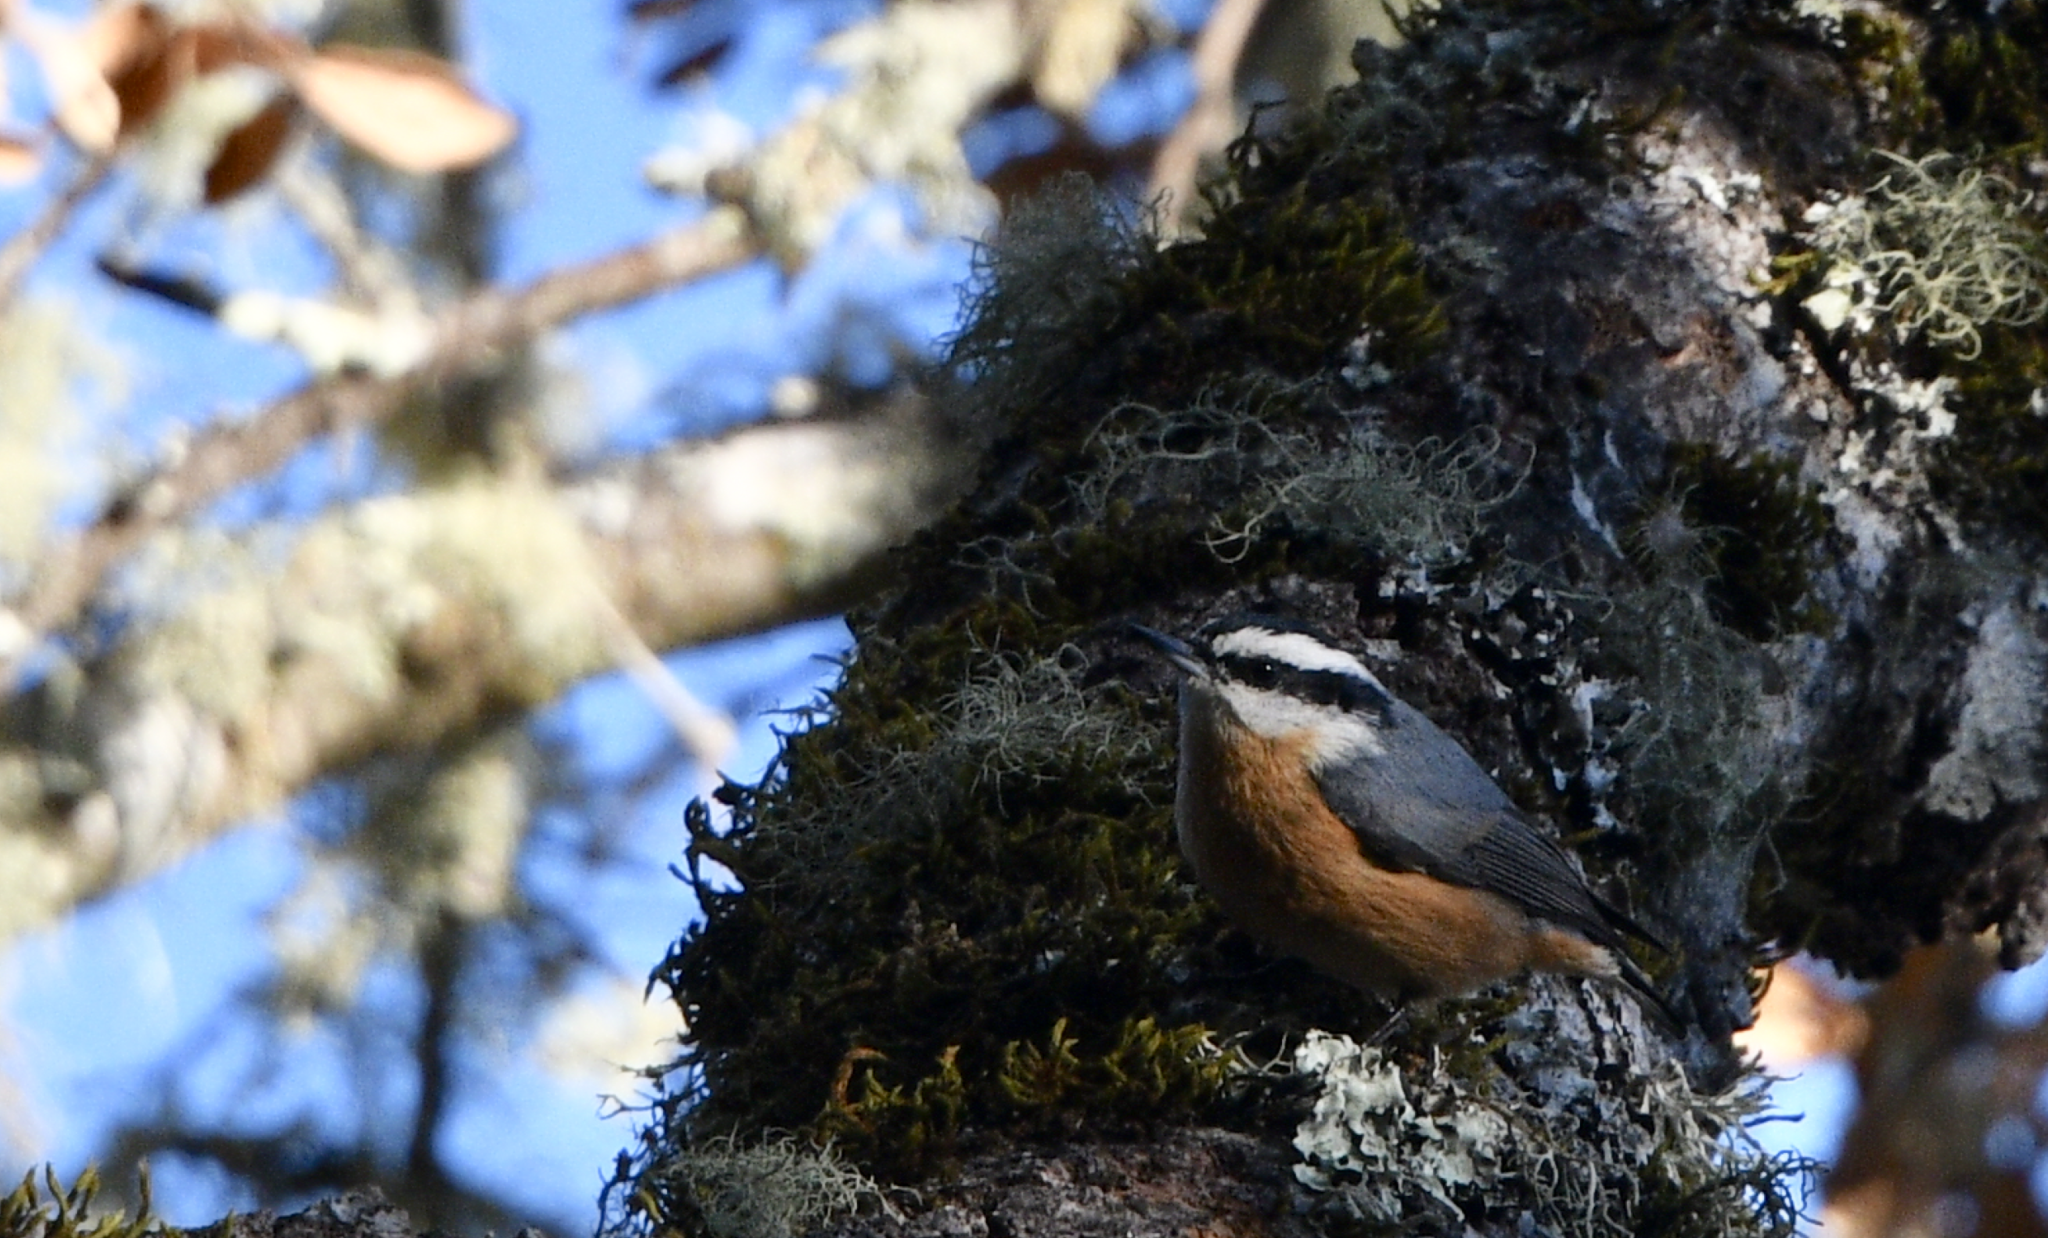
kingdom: Animalia
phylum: Chordata
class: Aves
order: Passeriformes
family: Sittidae
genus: Sitta
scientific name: Sitta canadensis
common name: Red-breasted nuthatch
